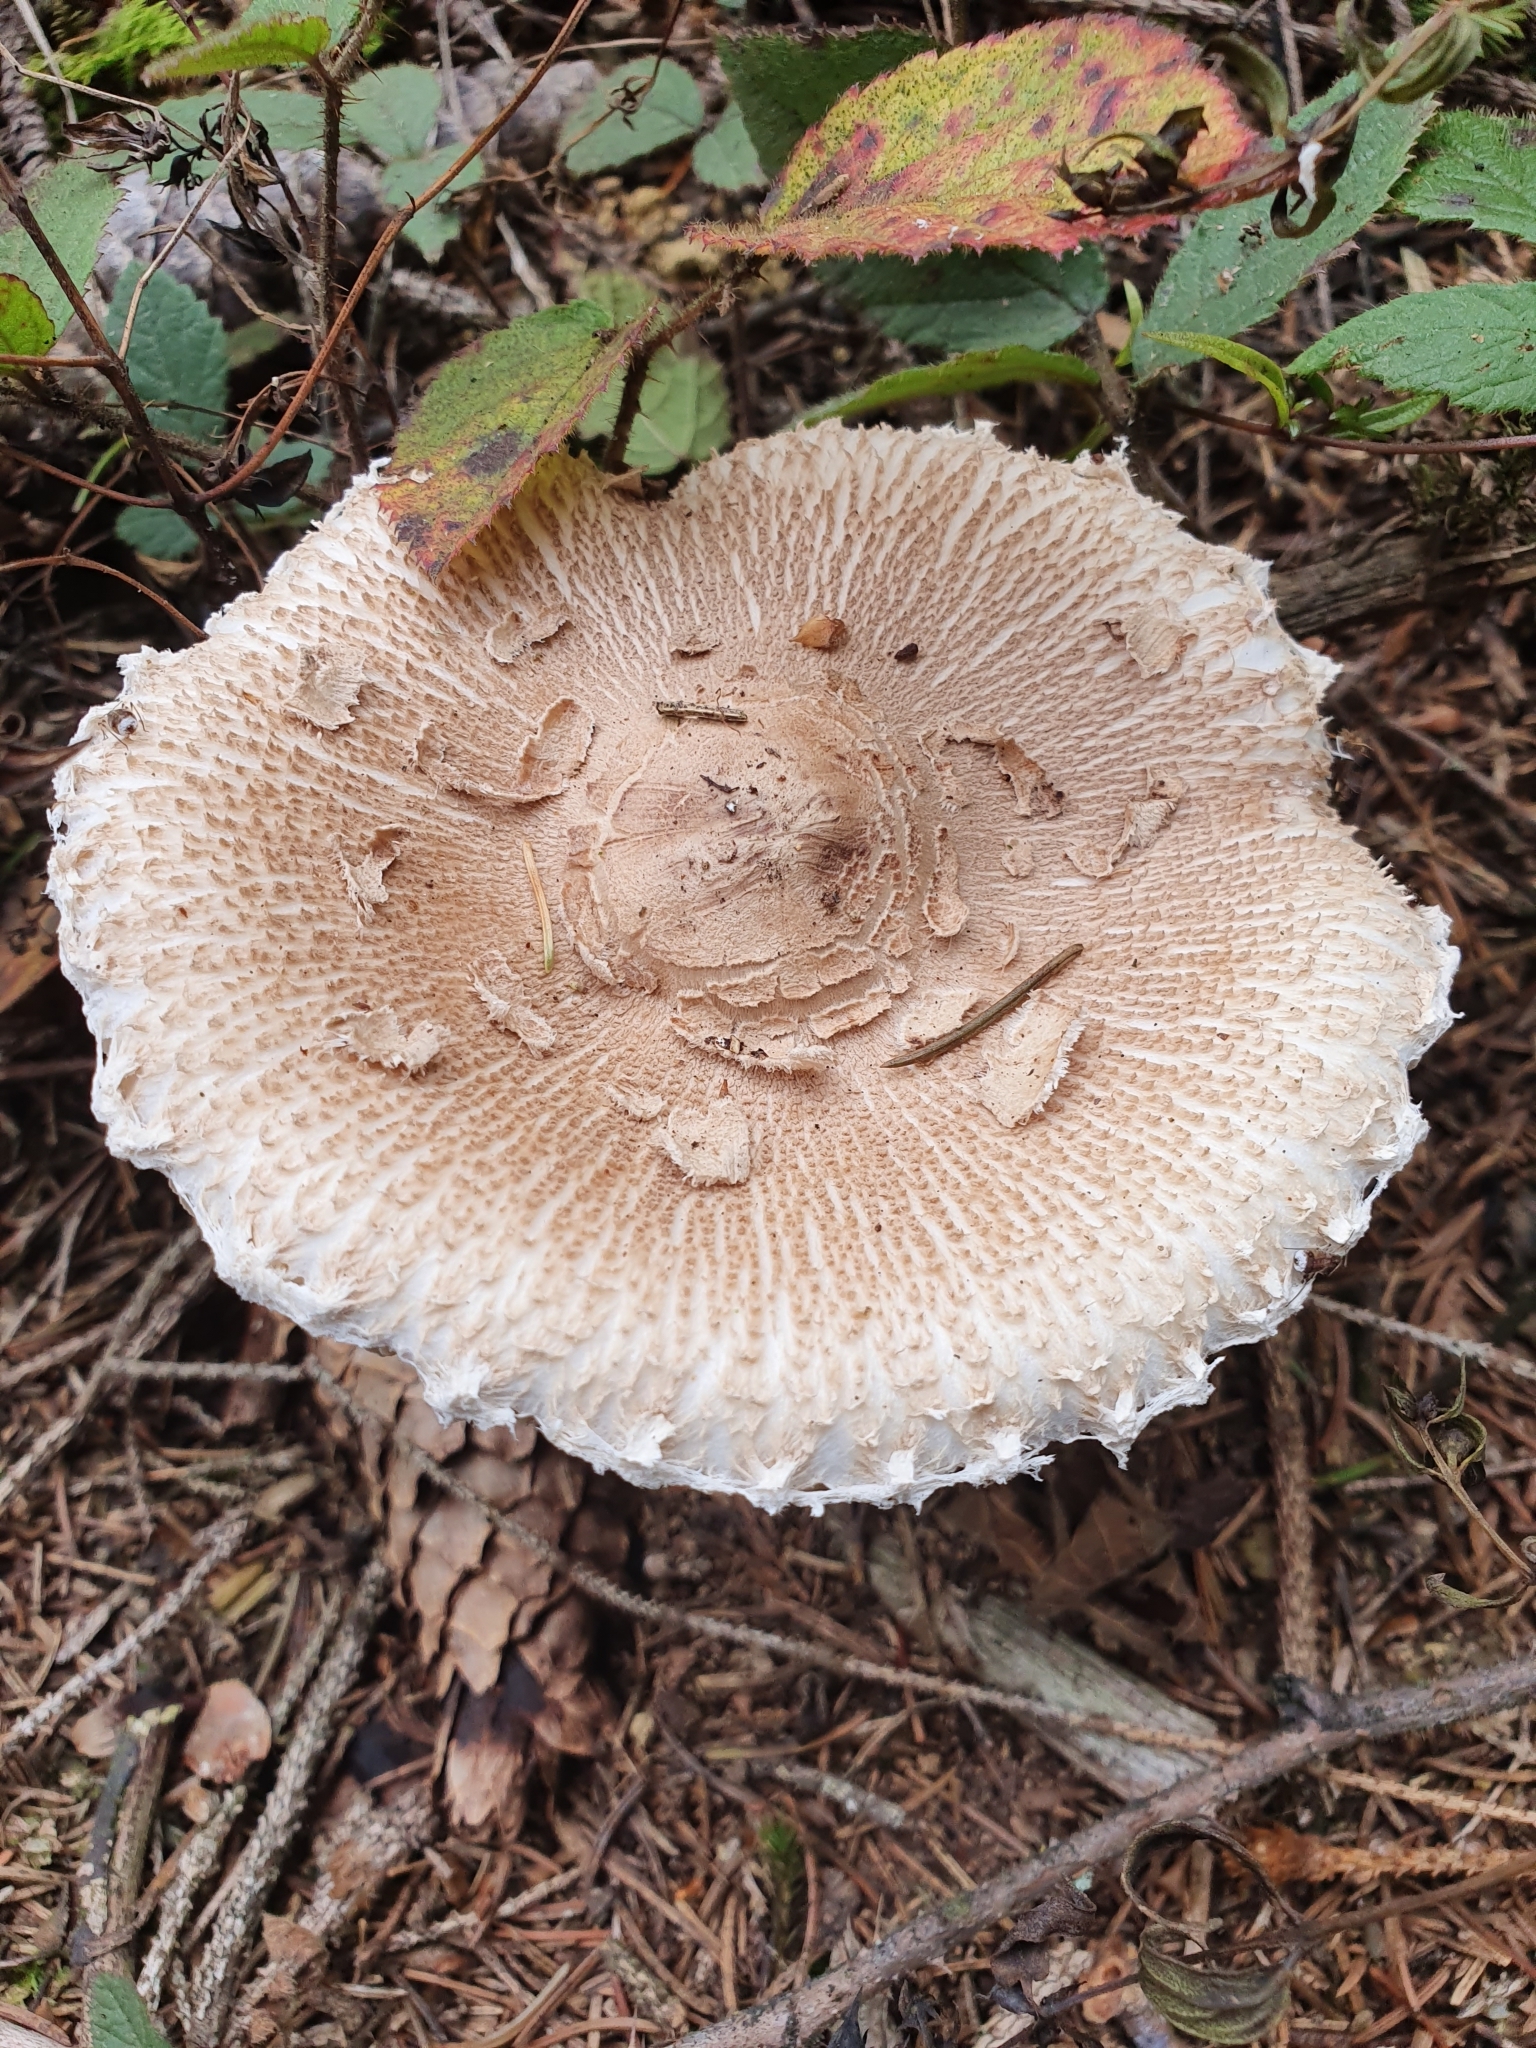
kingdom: Fungi
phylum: Basidiomycota
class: Agaricomycetes
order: Agaricales
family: Agaricaceae
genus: Macrolepiota
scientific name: Macrolepiota procera
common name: Parasol
